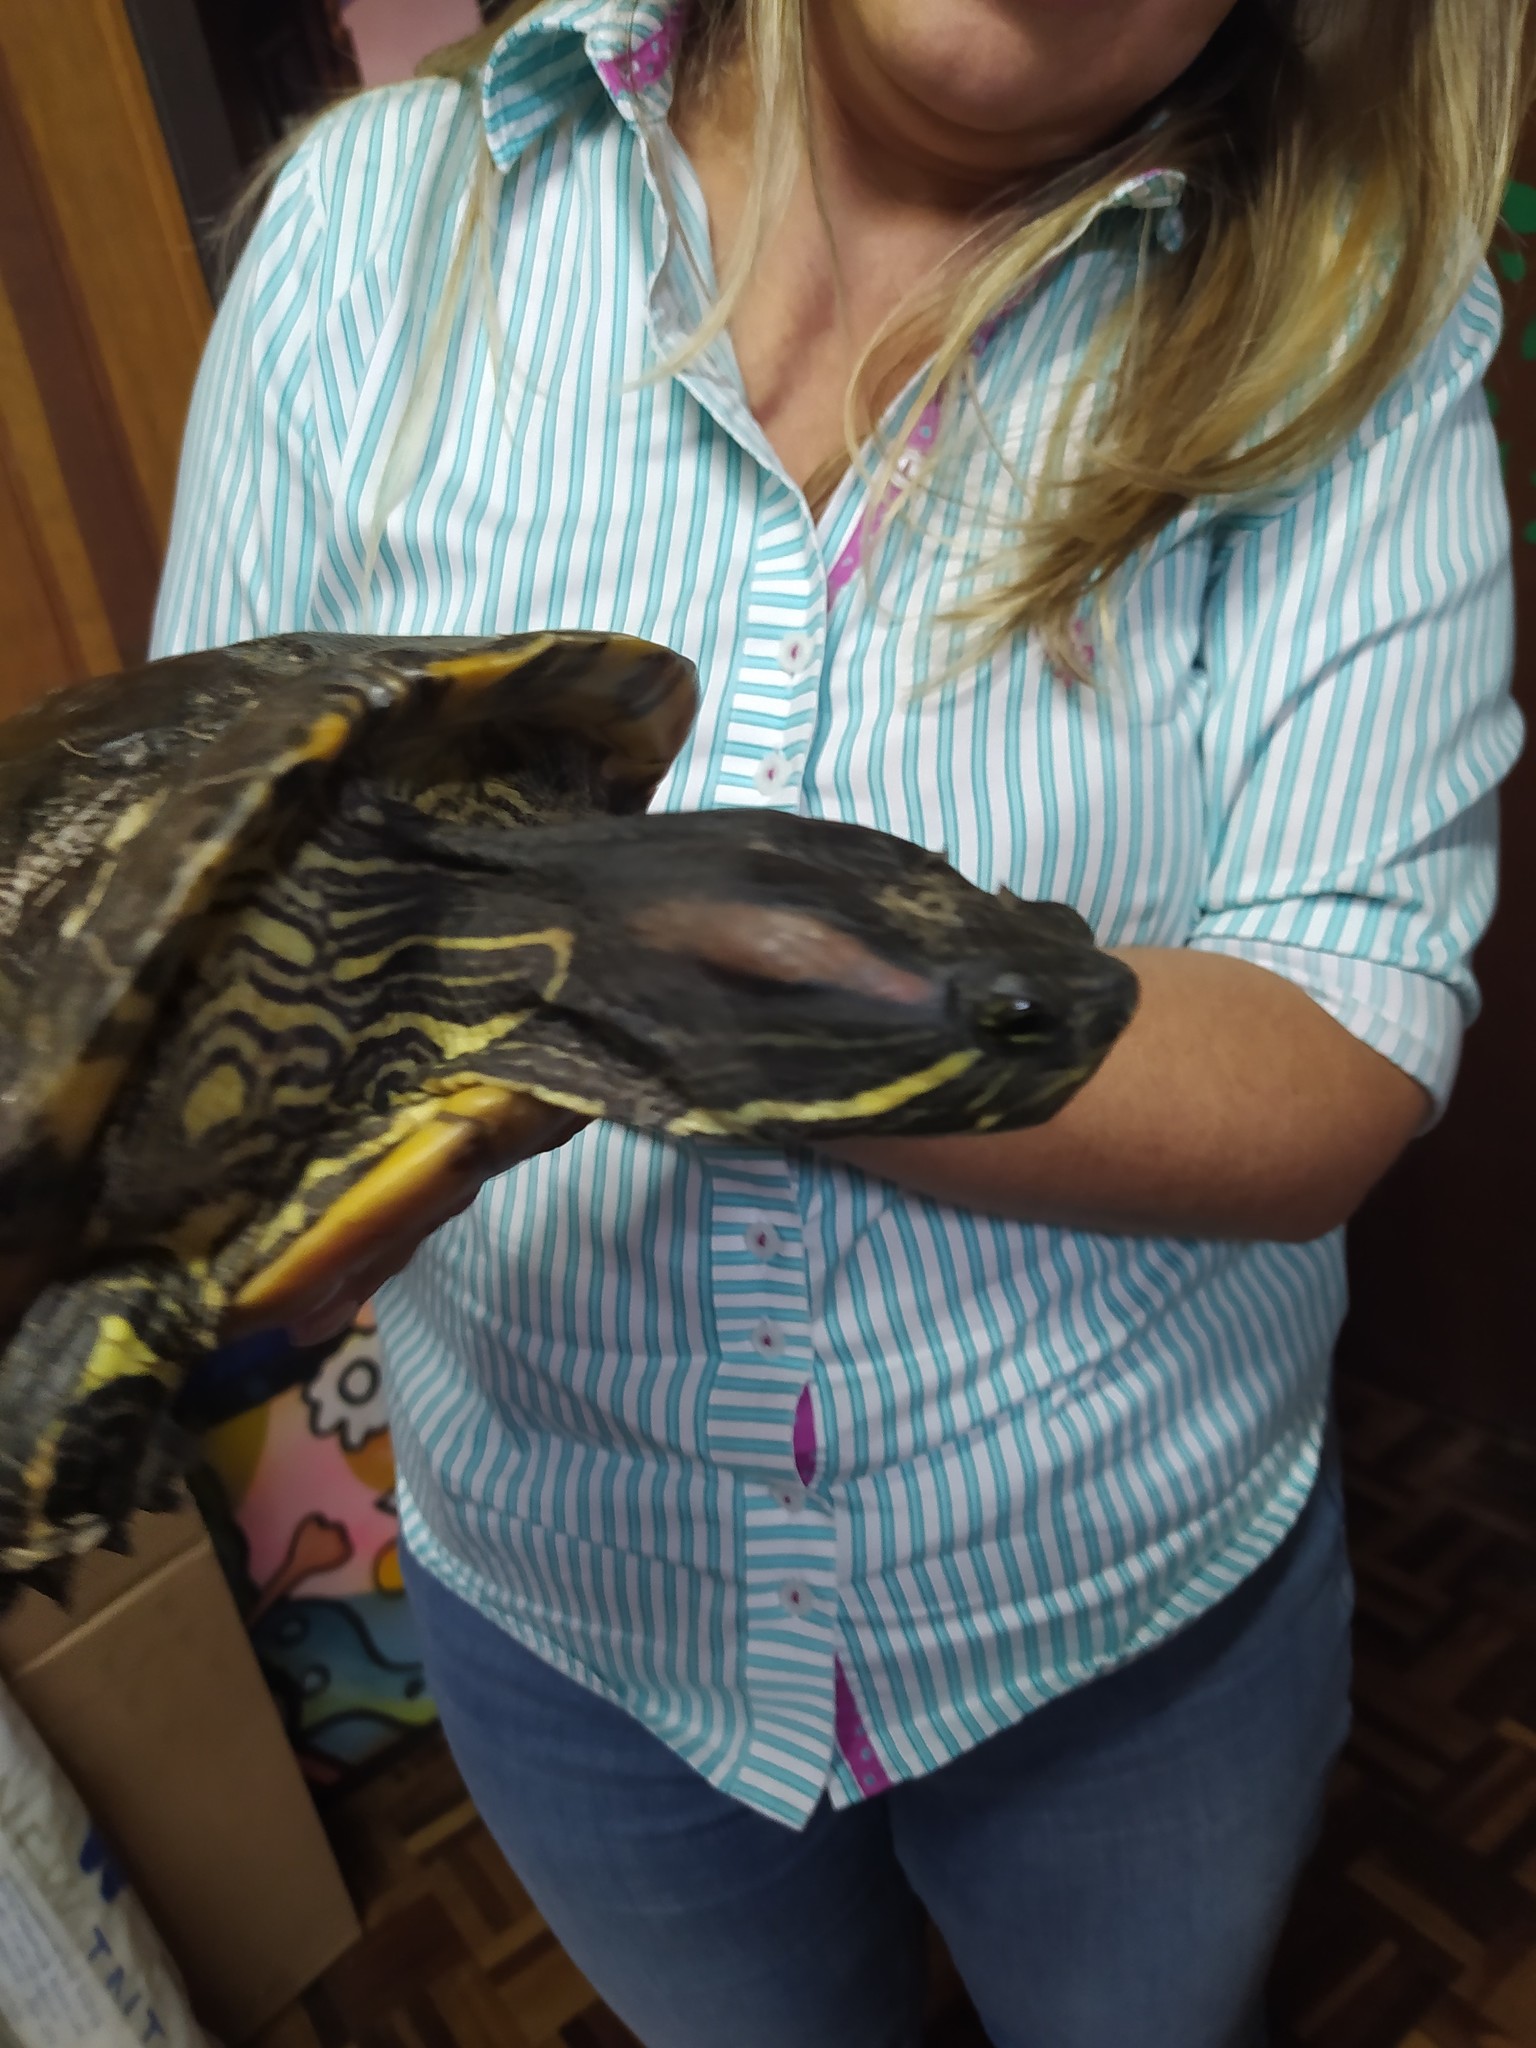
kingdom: Animalia
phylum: Chordata
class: Testudines
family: Emydidae
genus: Trachemys
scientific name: Trachemys scripta
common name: Slider
